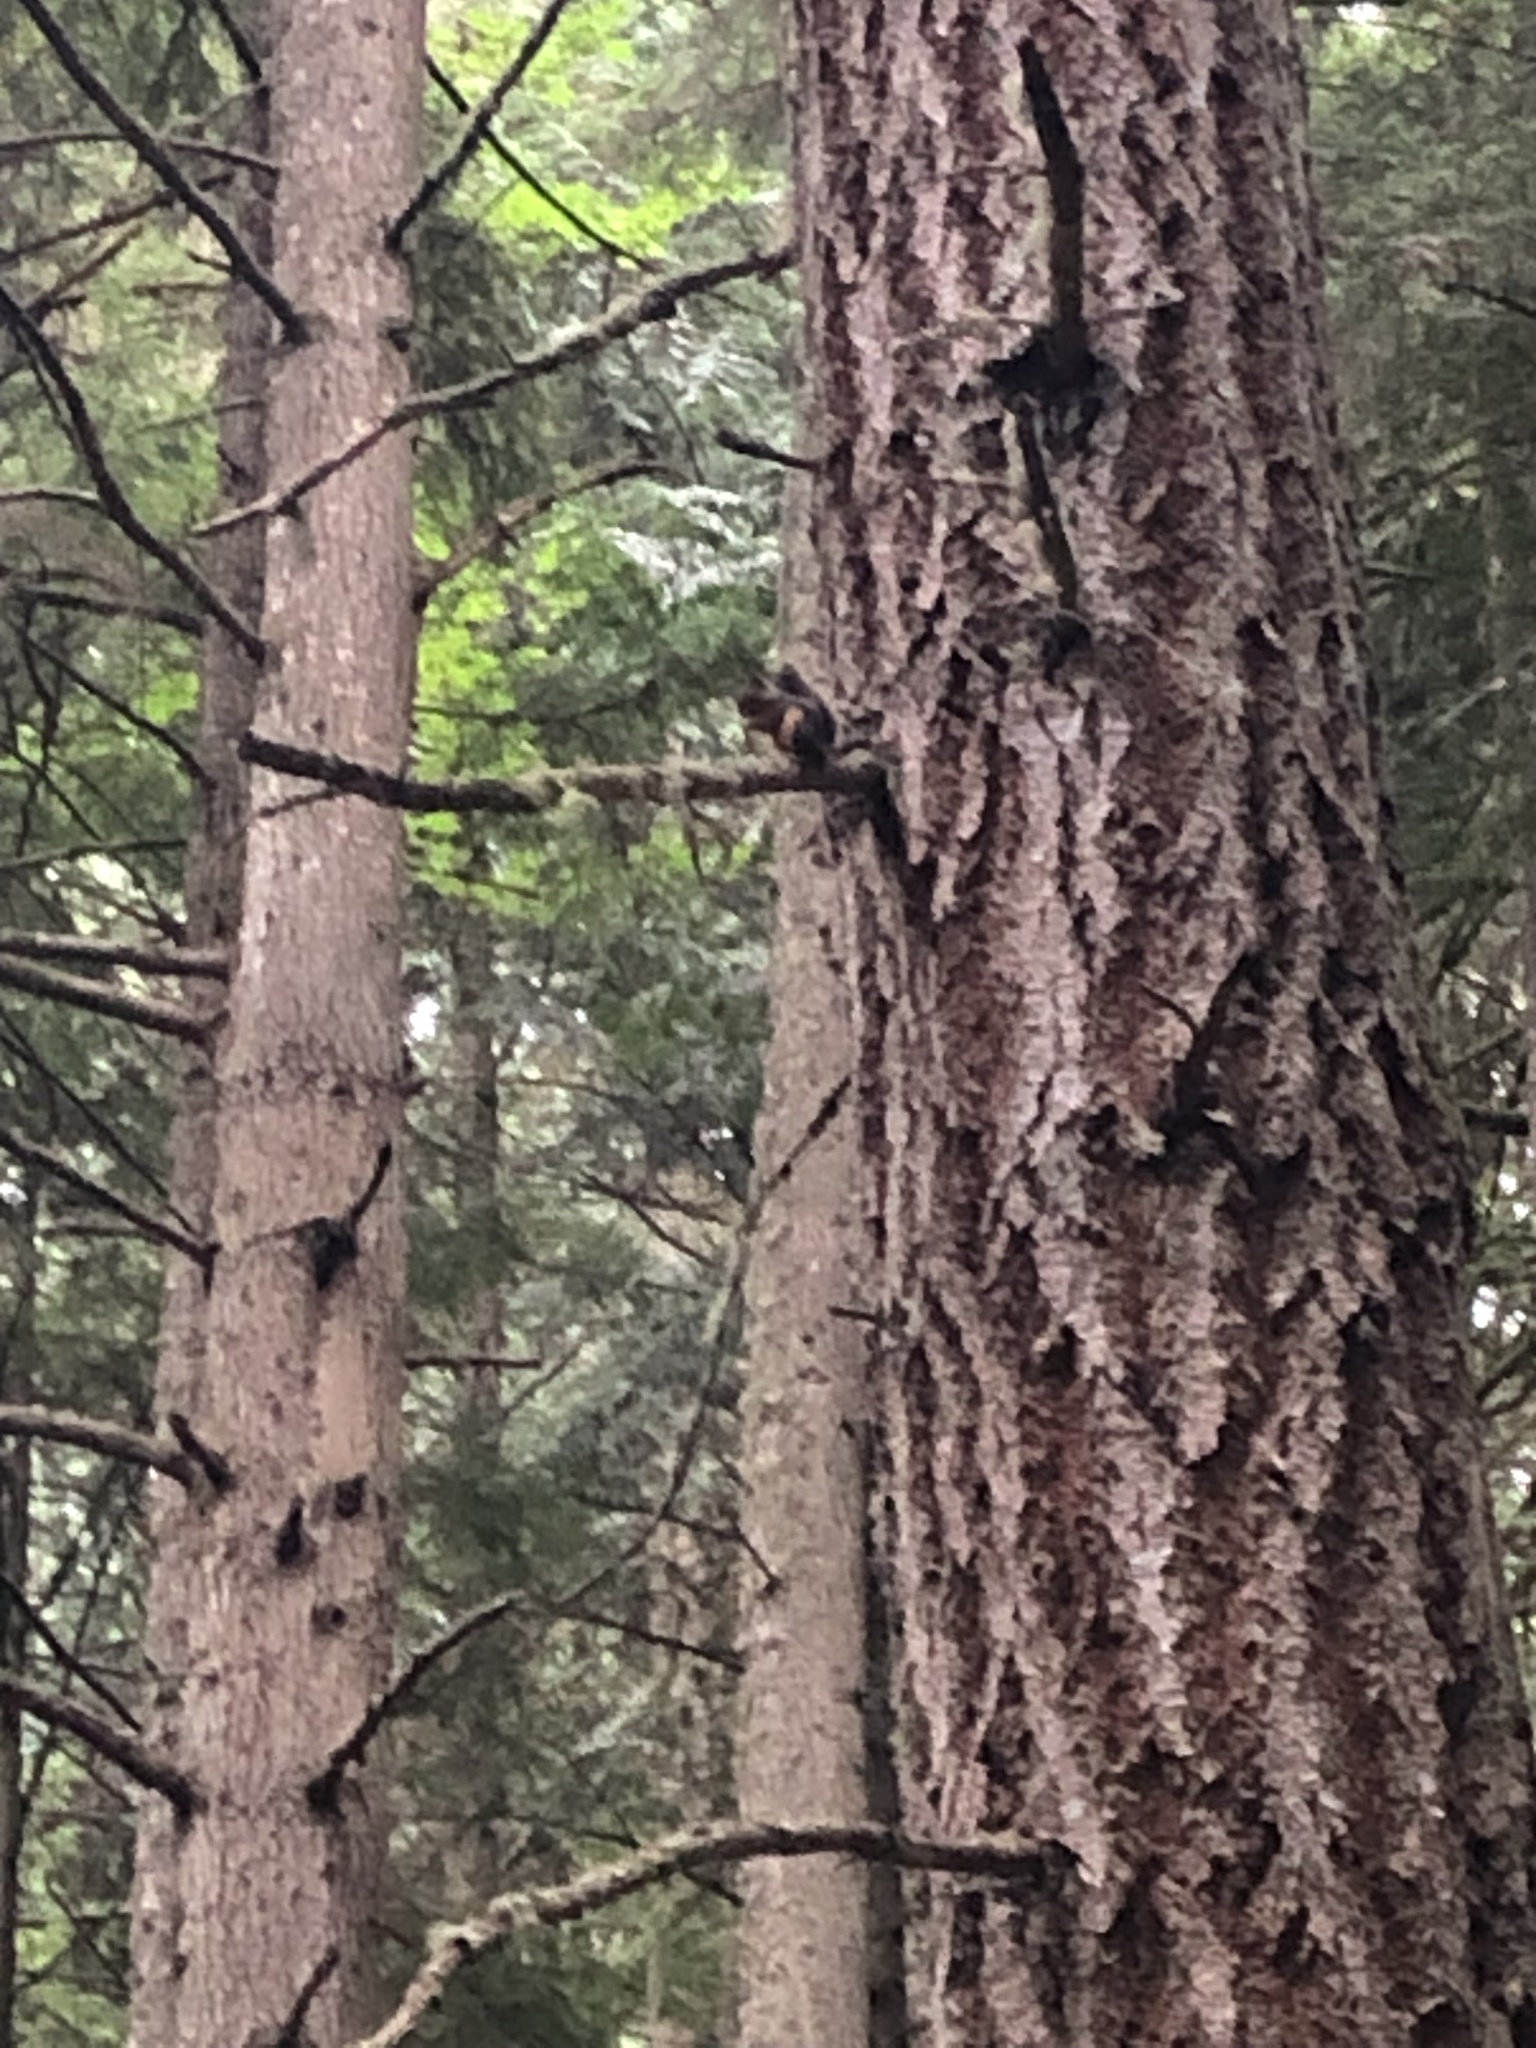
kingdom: Animalia
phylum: Chordata
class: Mammalia
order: Rodentia
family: Sciuridae
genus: Tamiasciurus
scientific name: Tamiasciurus douglasii
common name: Douglas's squirrel
